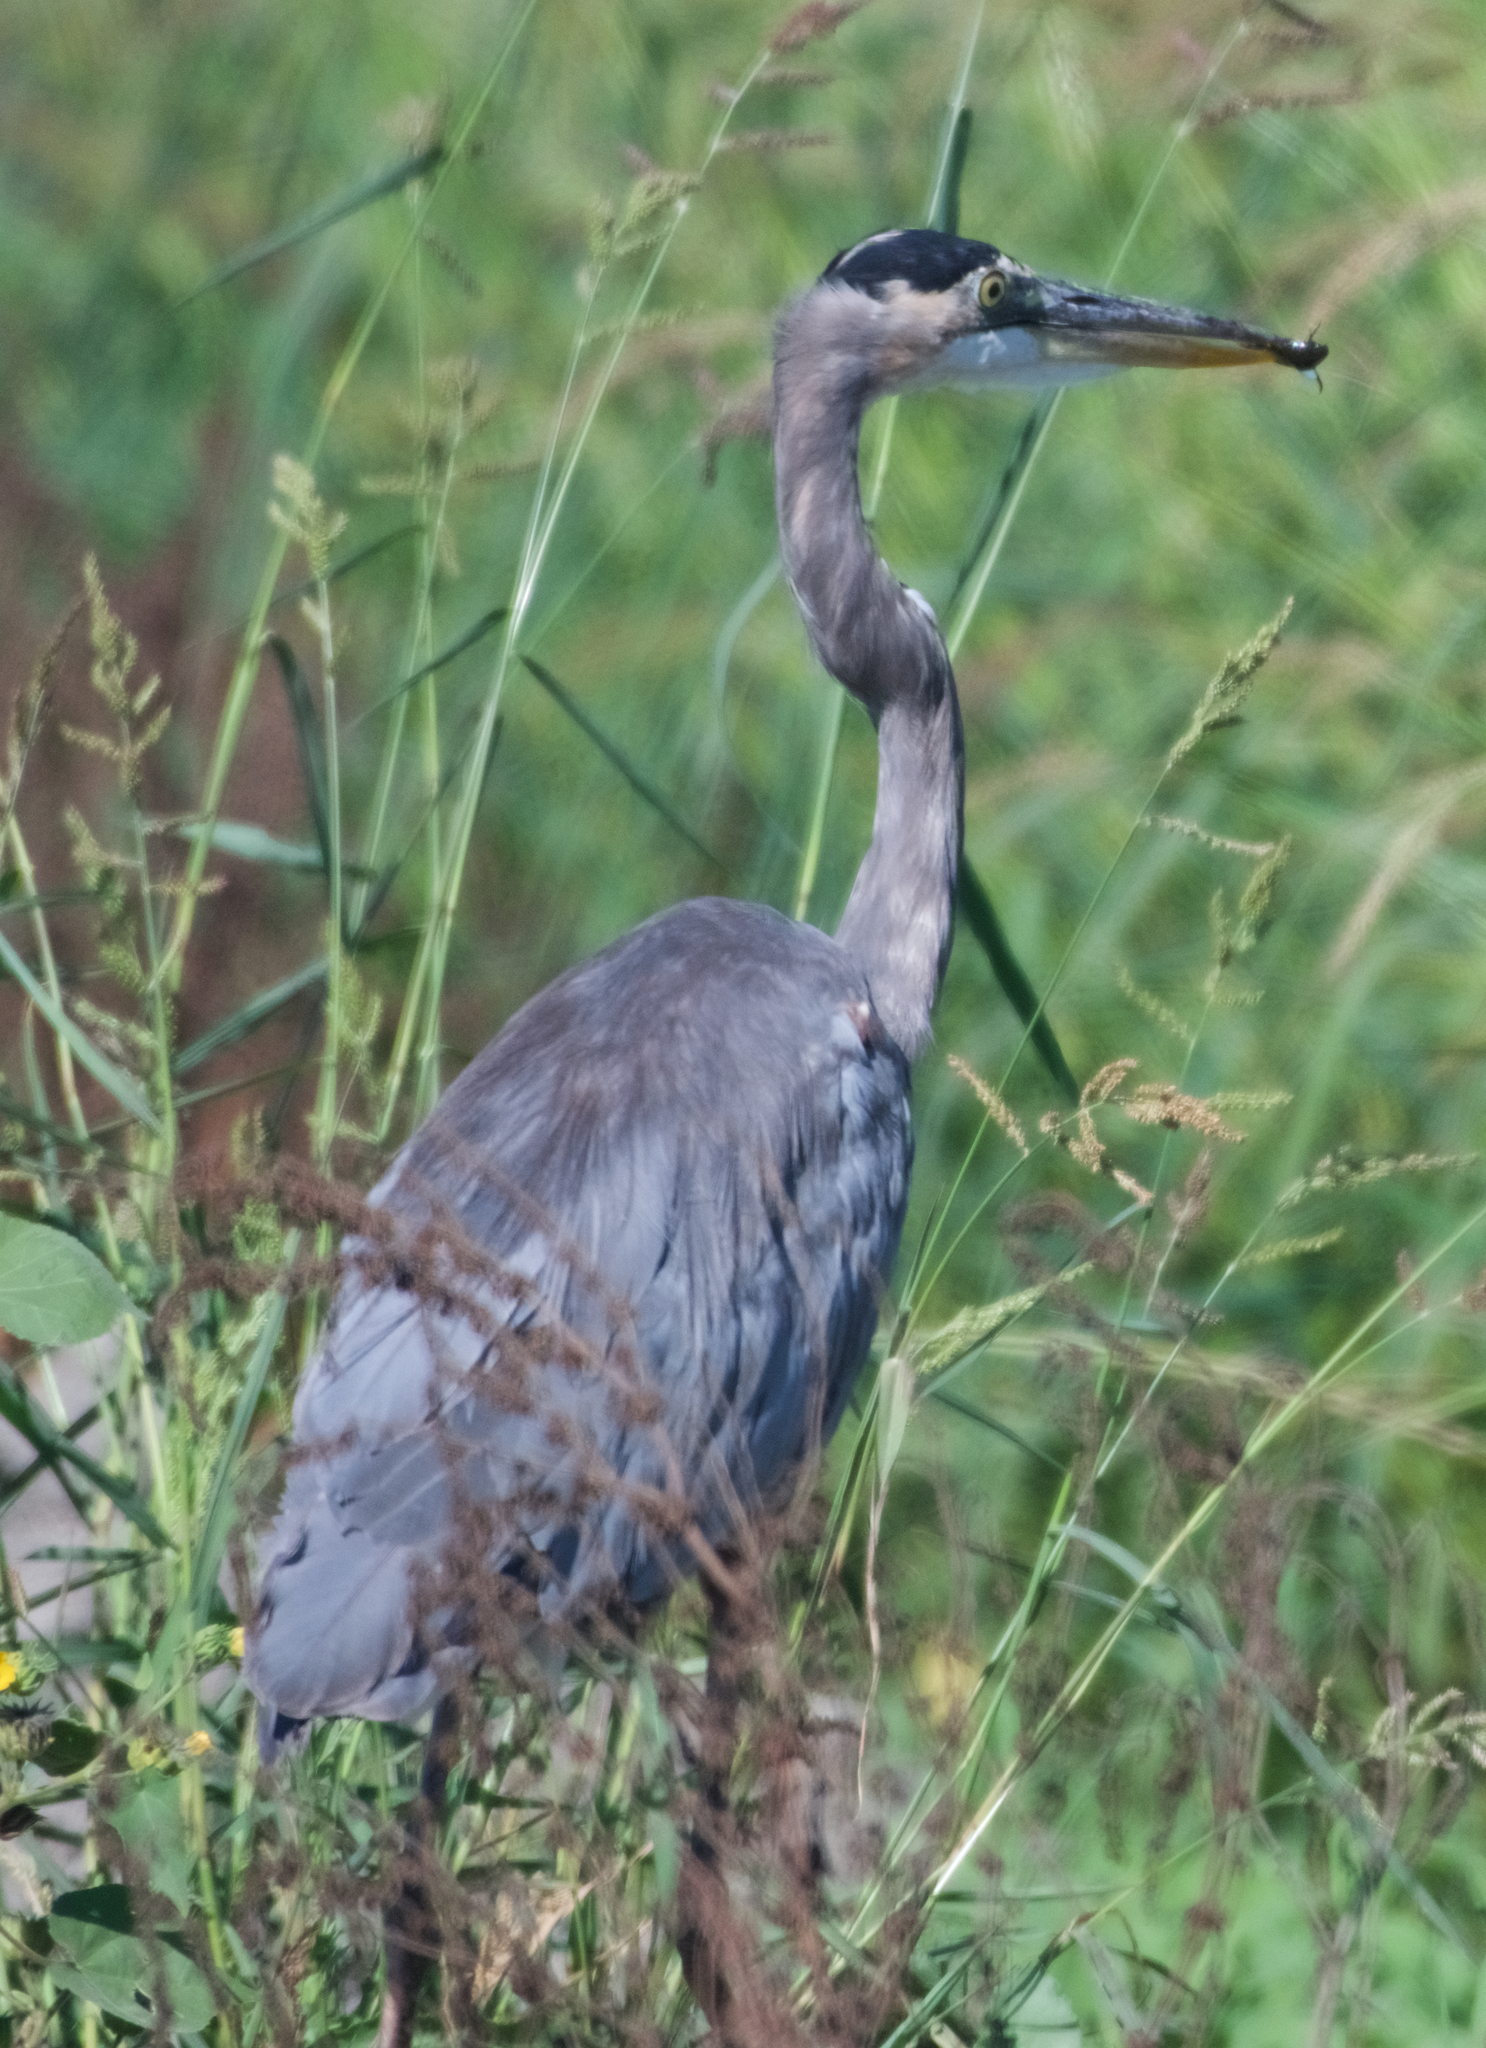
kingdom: Animalia
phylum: Chordata
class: Aves
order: Pelecaniformes
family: Ardeidae
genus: Ardea
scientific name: Ardea herodias
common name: Great blue heron
